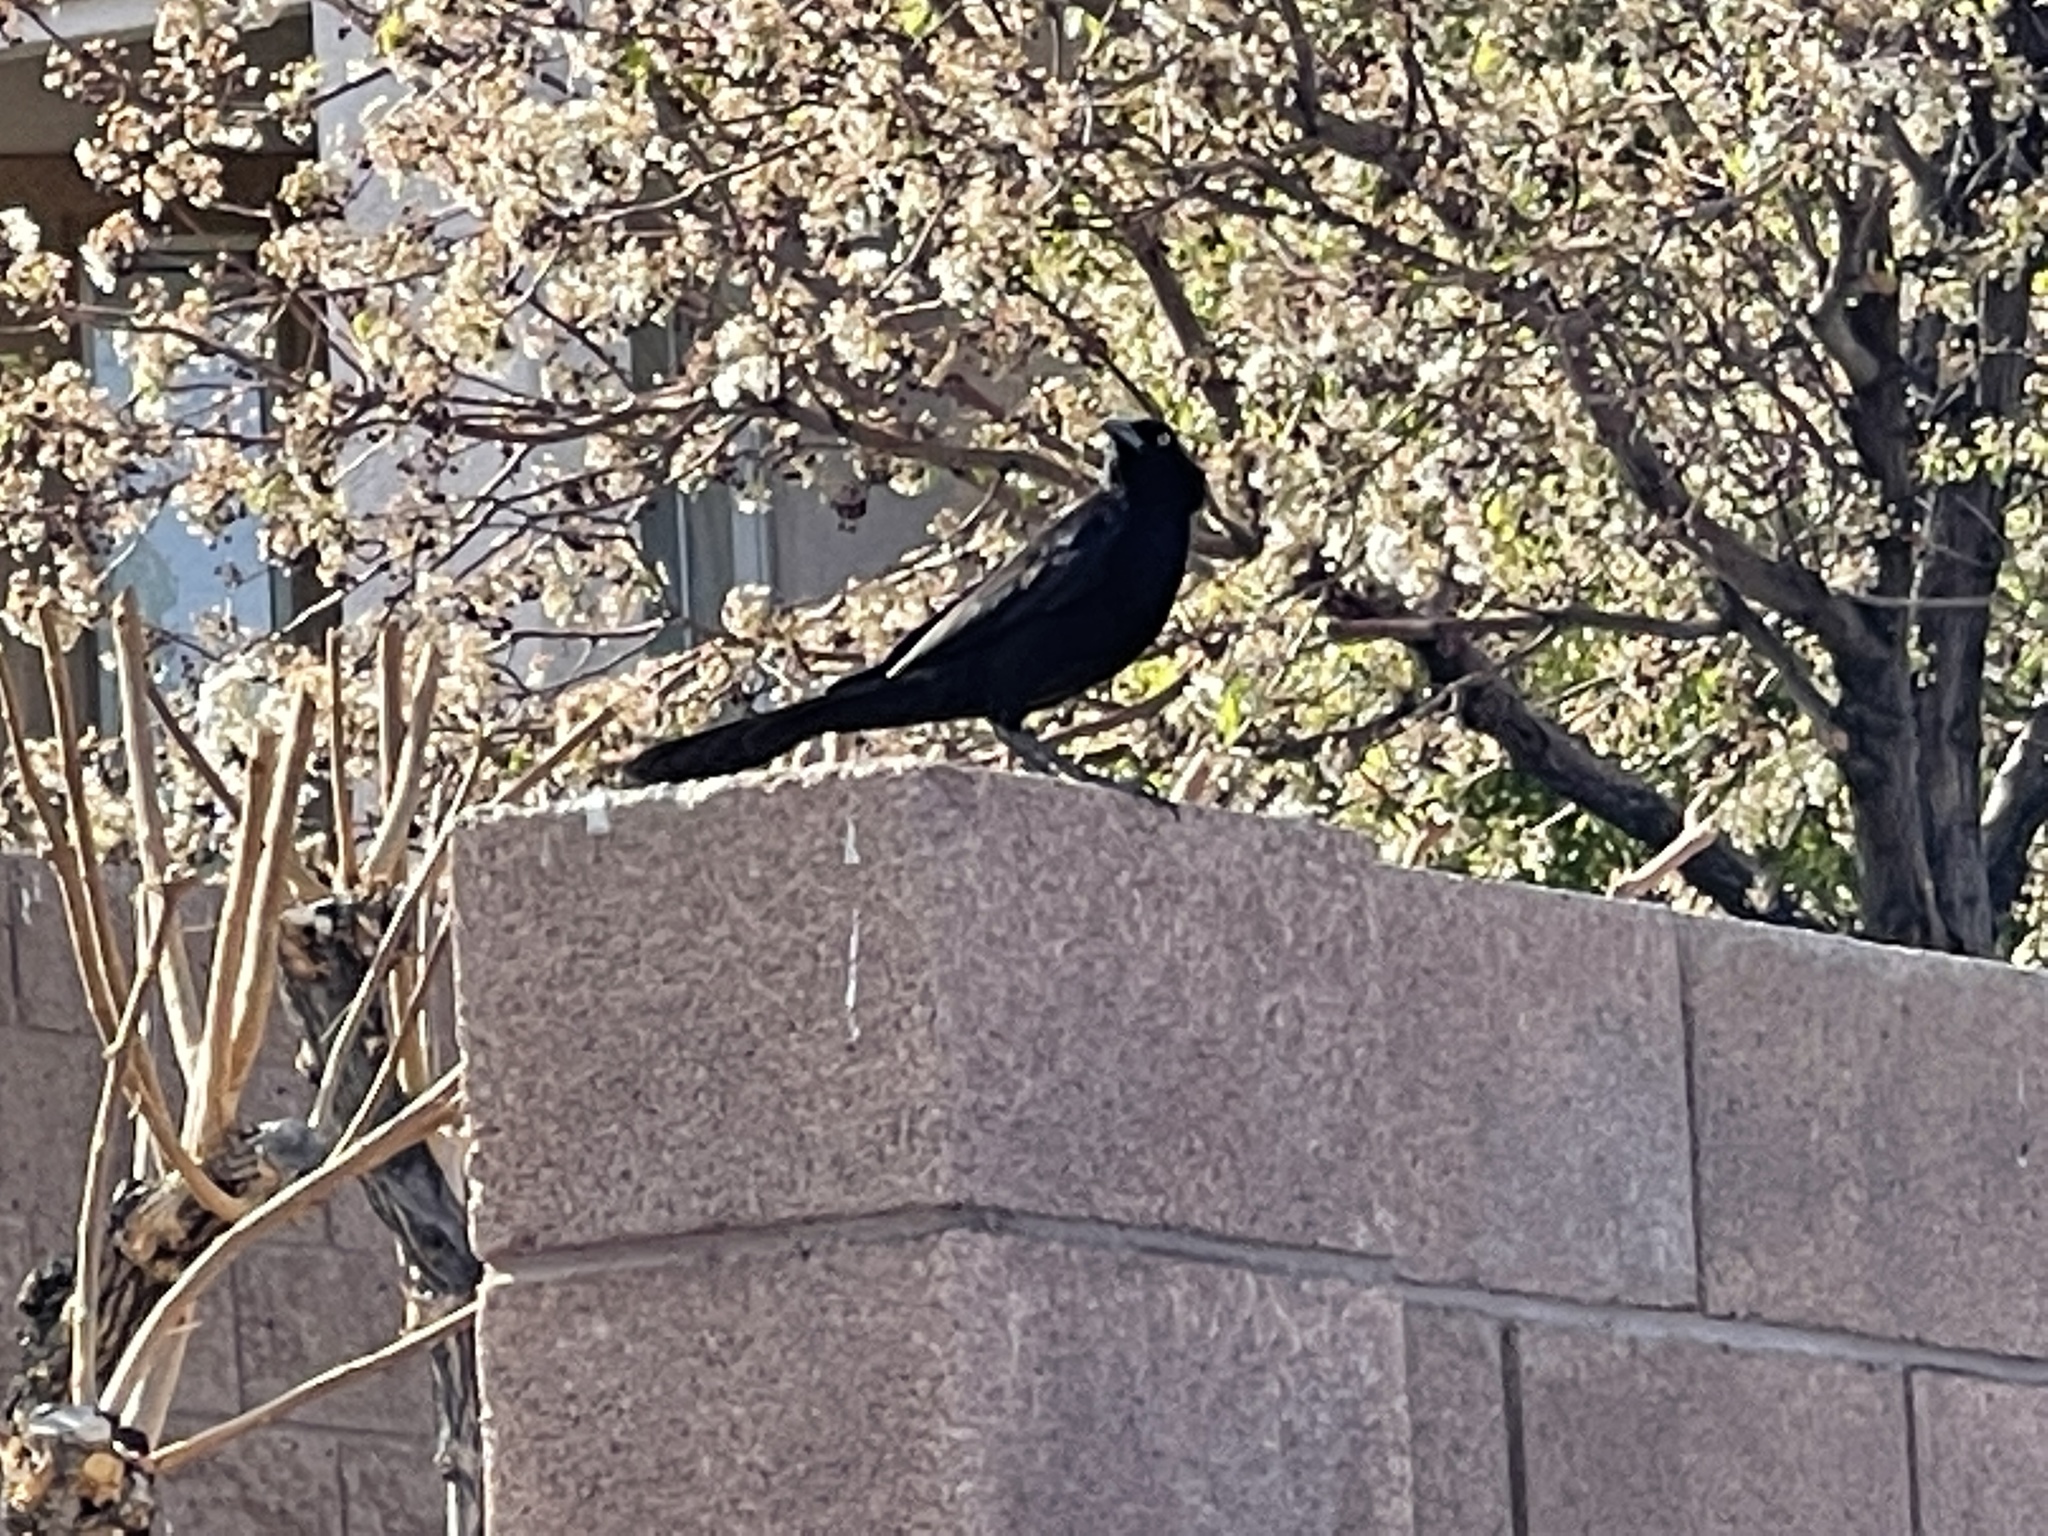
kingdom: Animalia
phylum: Chordata
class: Aves
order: Passeriformes
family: Icteridae
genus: Quiscalus
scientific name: Quiscalus mexicanus
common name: Great-tailed grackle
